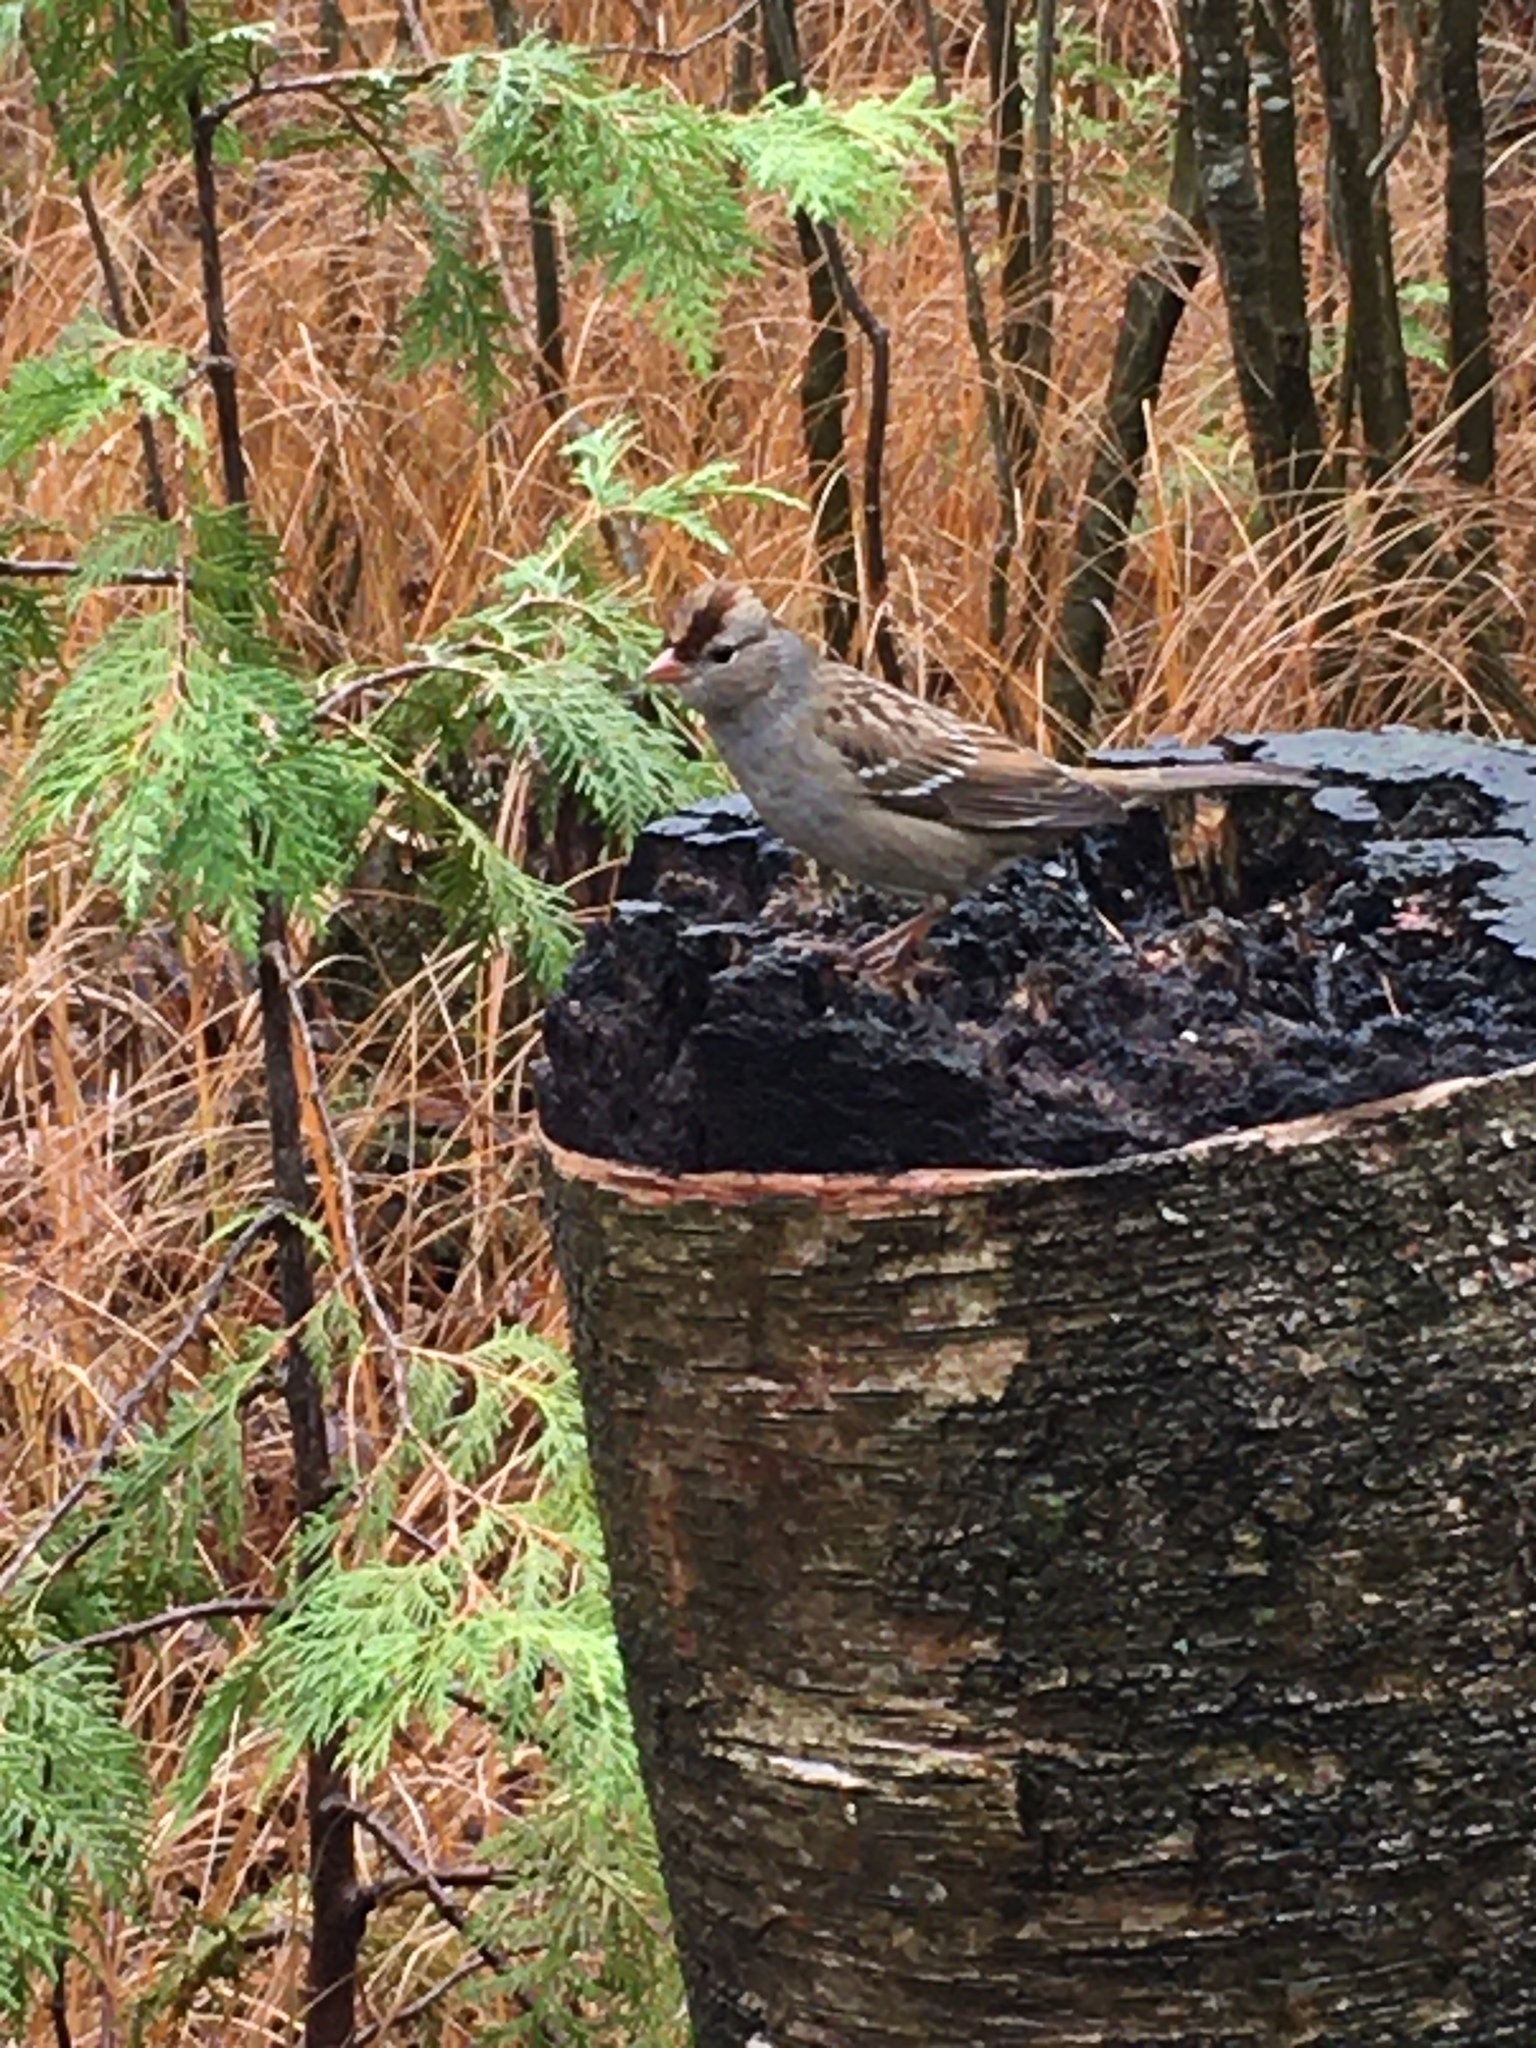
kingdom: Animalia
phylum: Chordata
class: Aves
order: Passeriformes
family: Passerellidae
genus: Zonotrichia
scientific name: Zonotrichia leucophrys
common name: White-crowned sparrow
